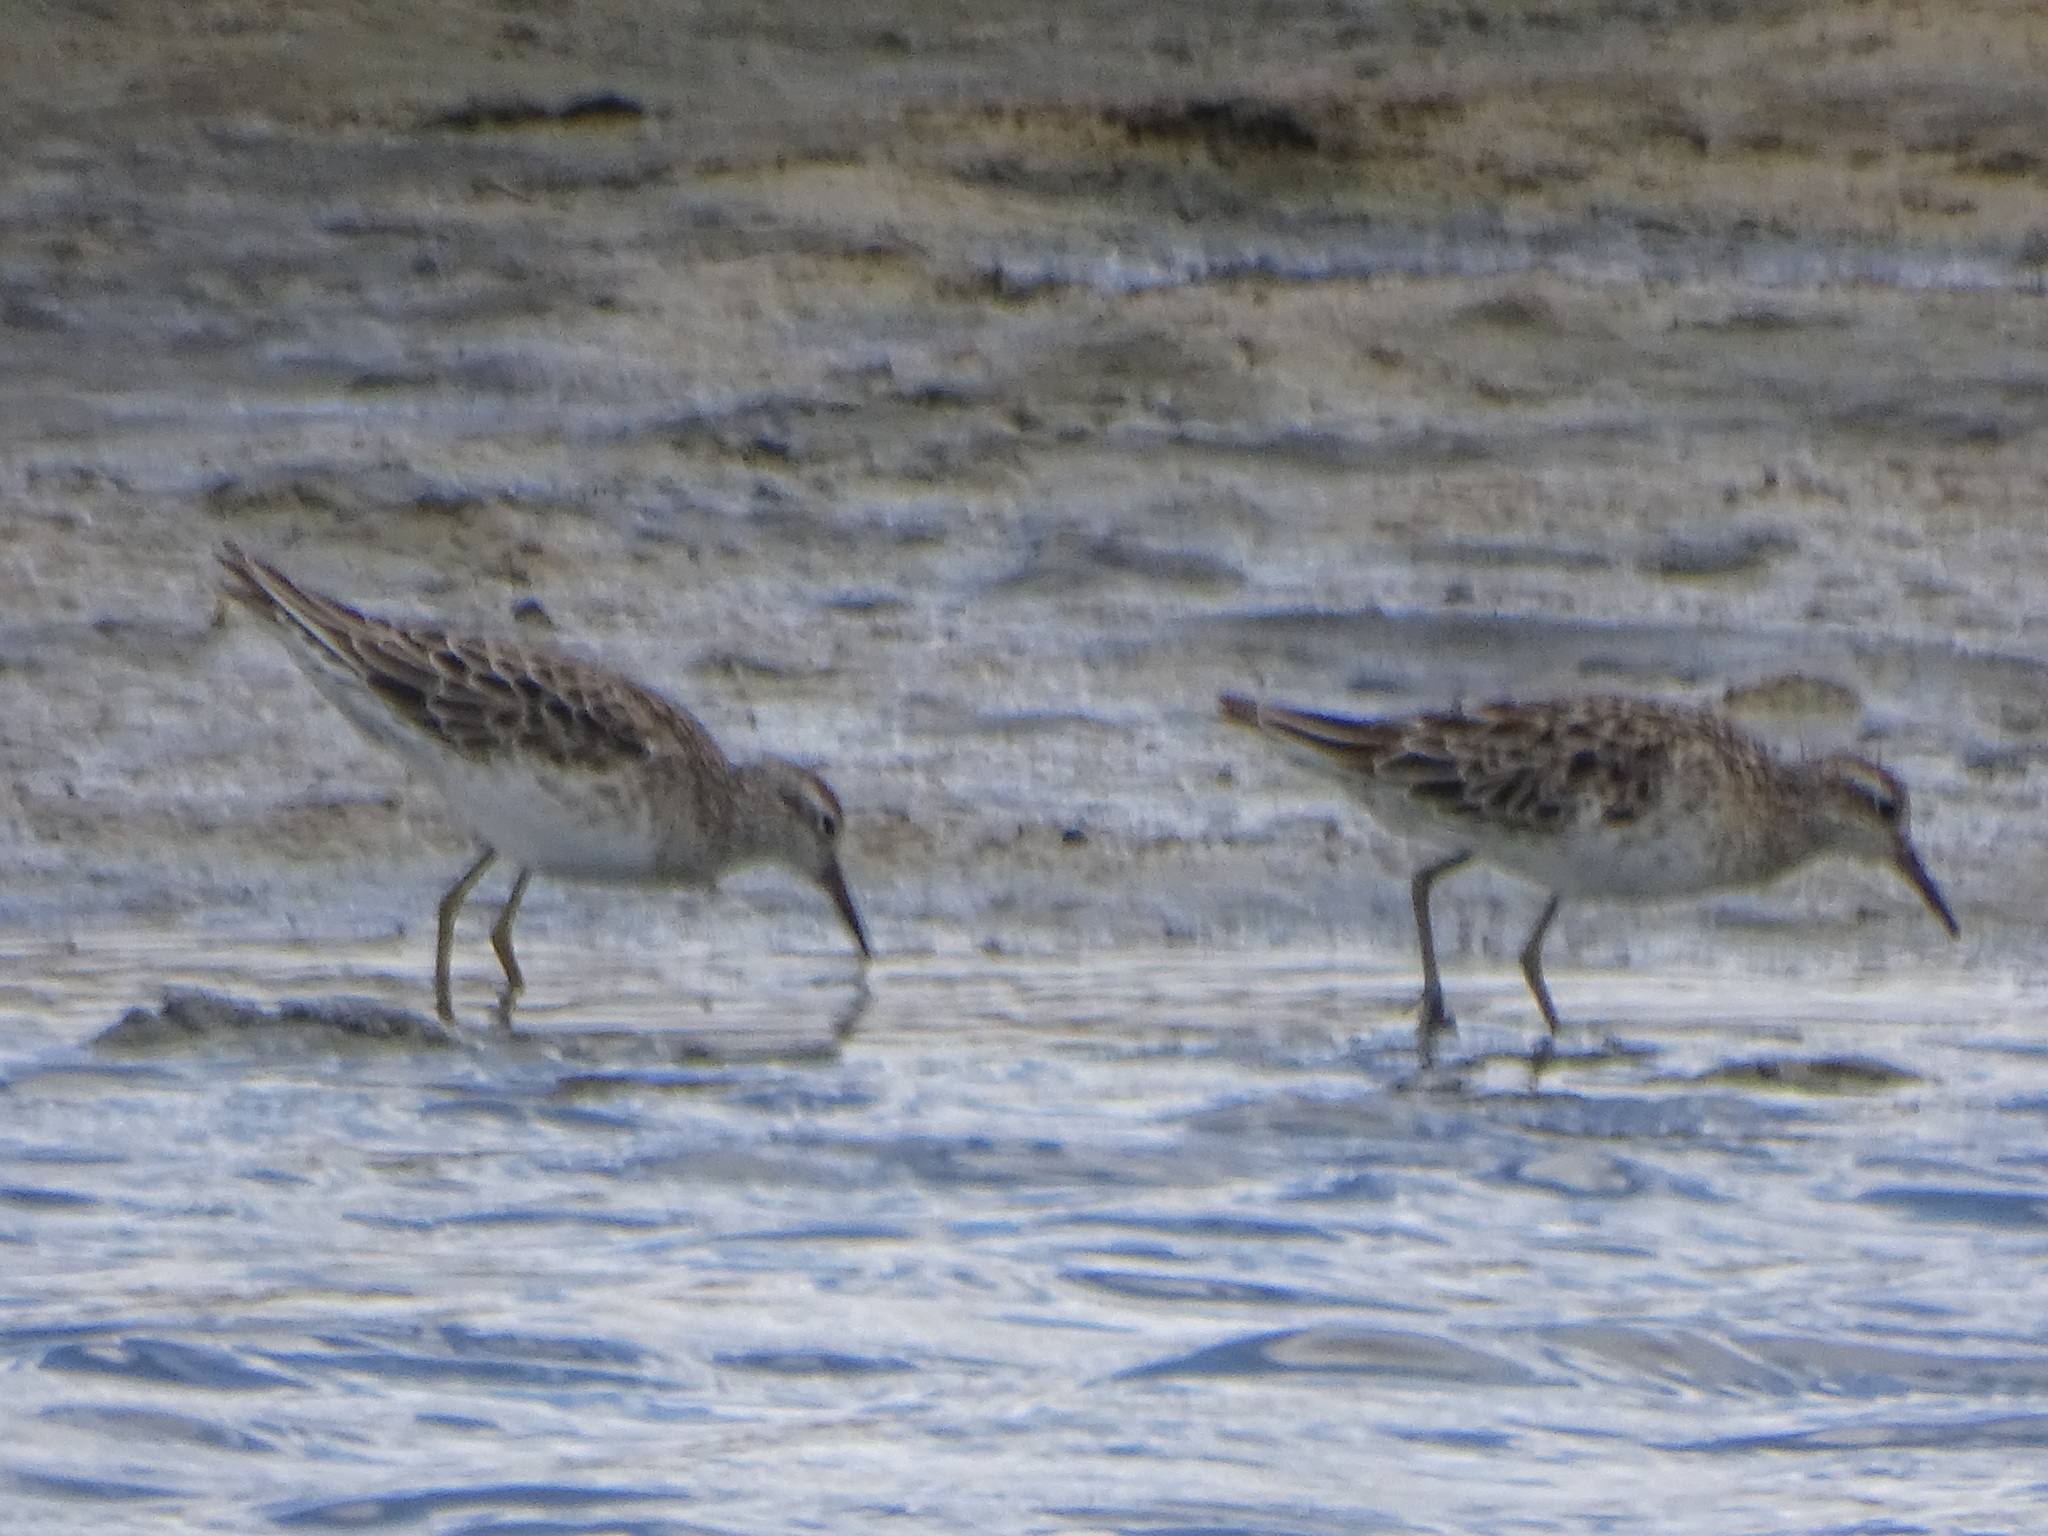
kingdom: Animalia
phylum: Chordata
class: Aves
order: Charadriiformes
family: Scolopacidae
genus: Calidris
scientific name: Calidris acuminata
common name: Sharp-tailed sandpiper
